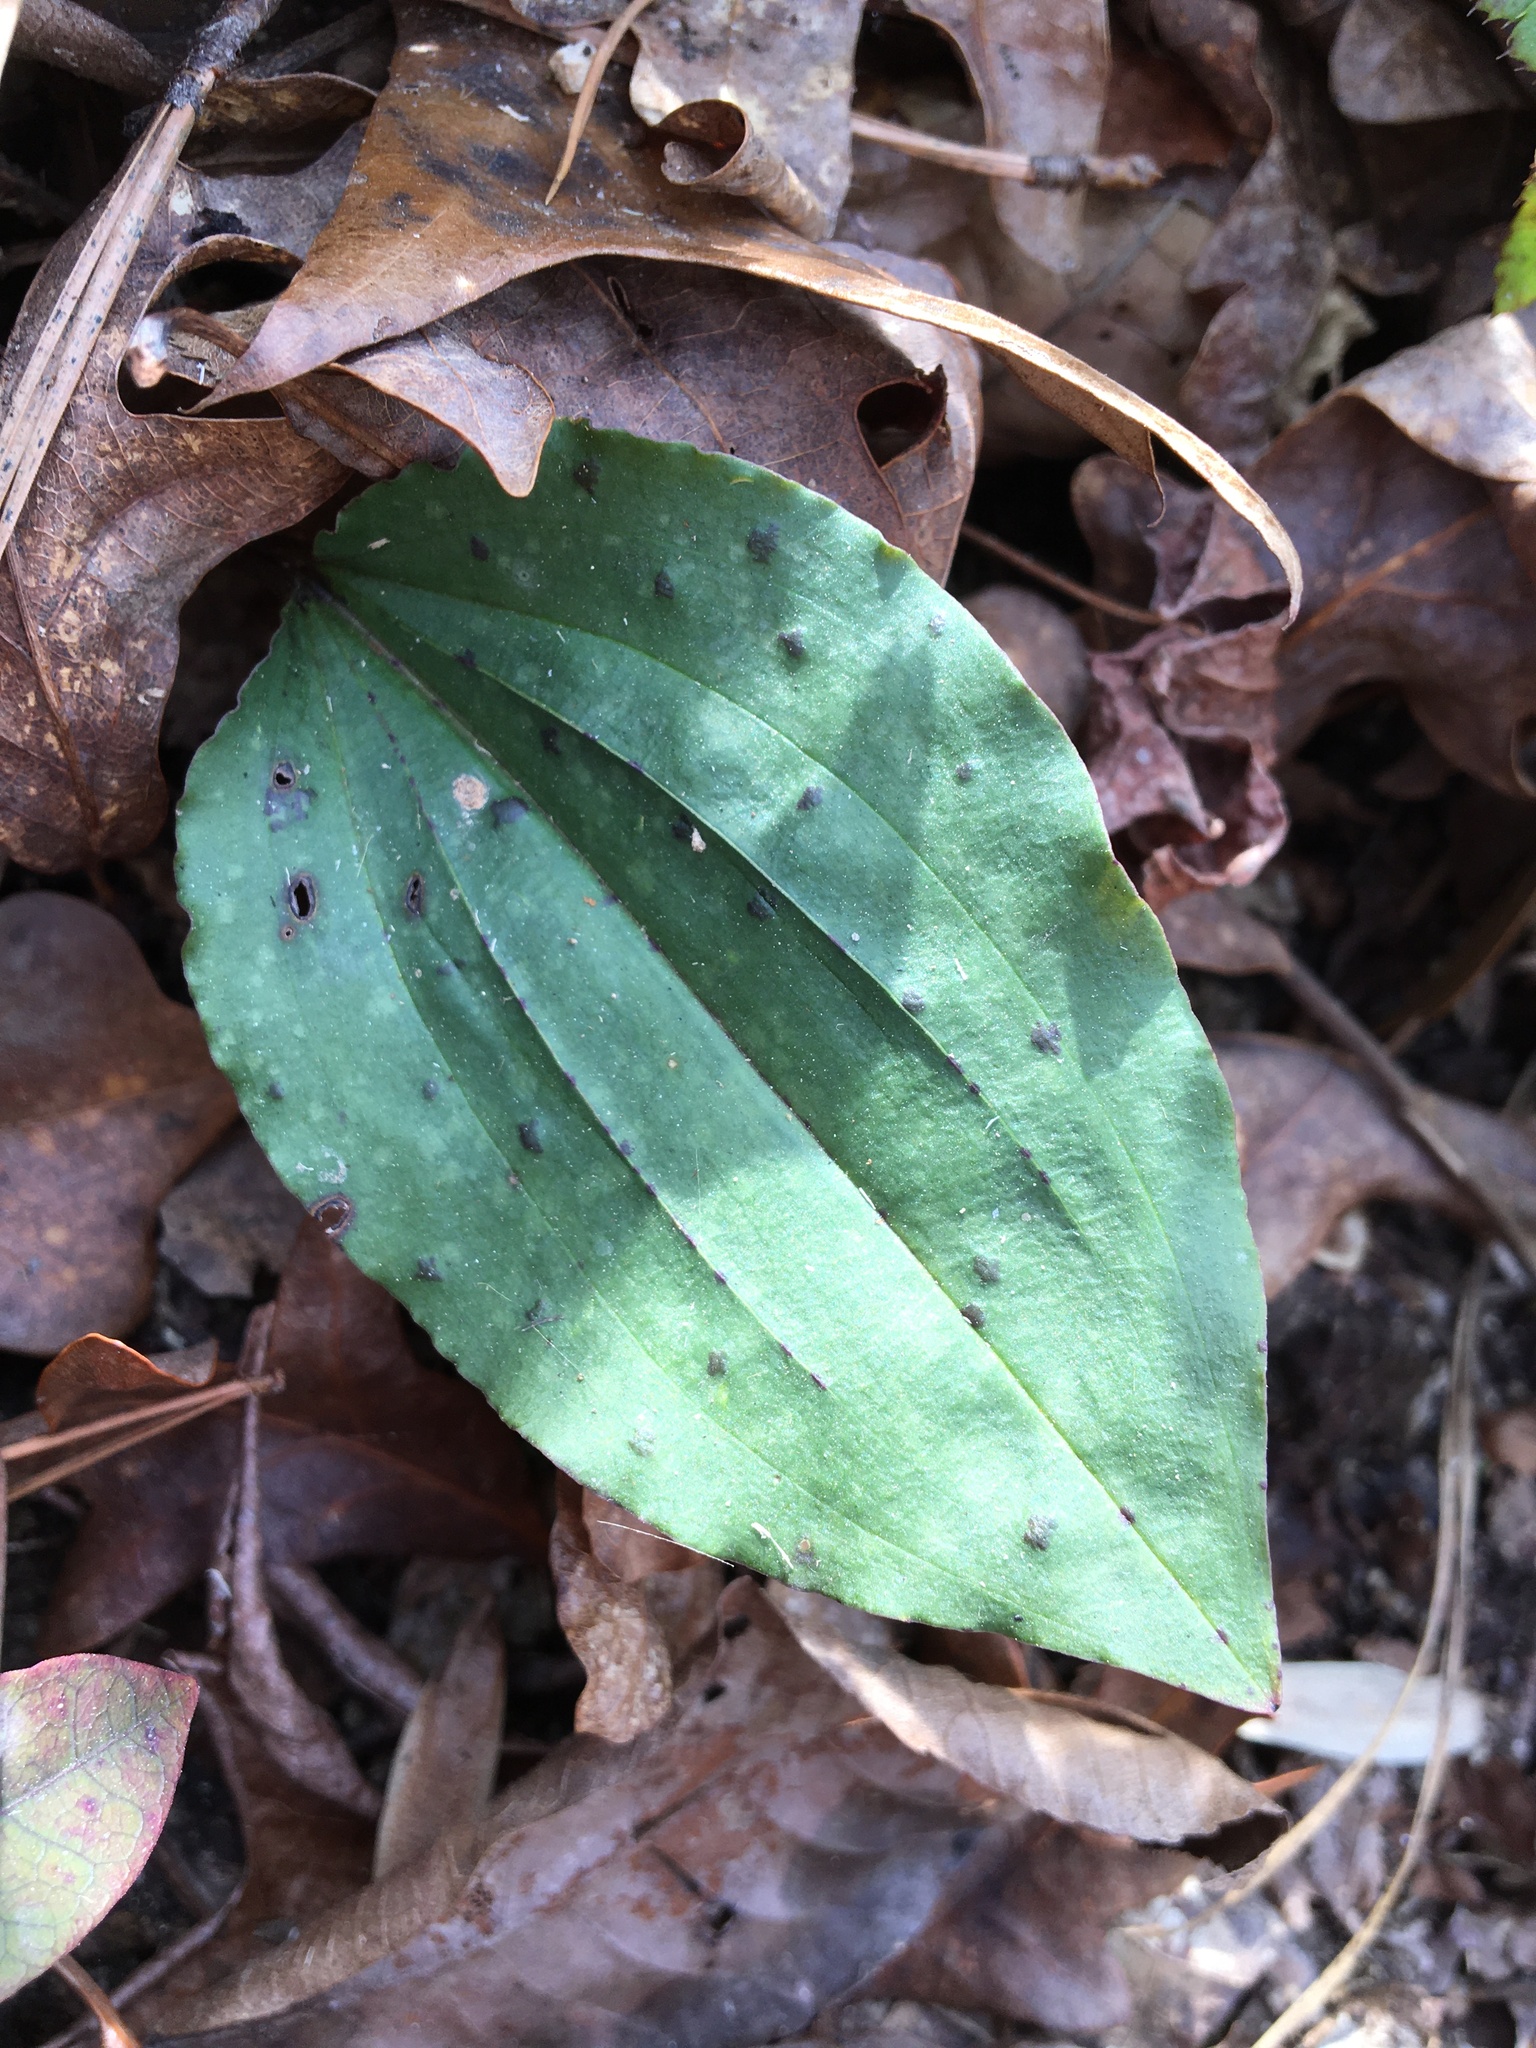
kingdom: Plantae
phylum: Tracheophyta
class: Liliopsida
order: Asparagales
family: Orchidaceae
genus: Tipularia
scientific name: Tipularia discolor
